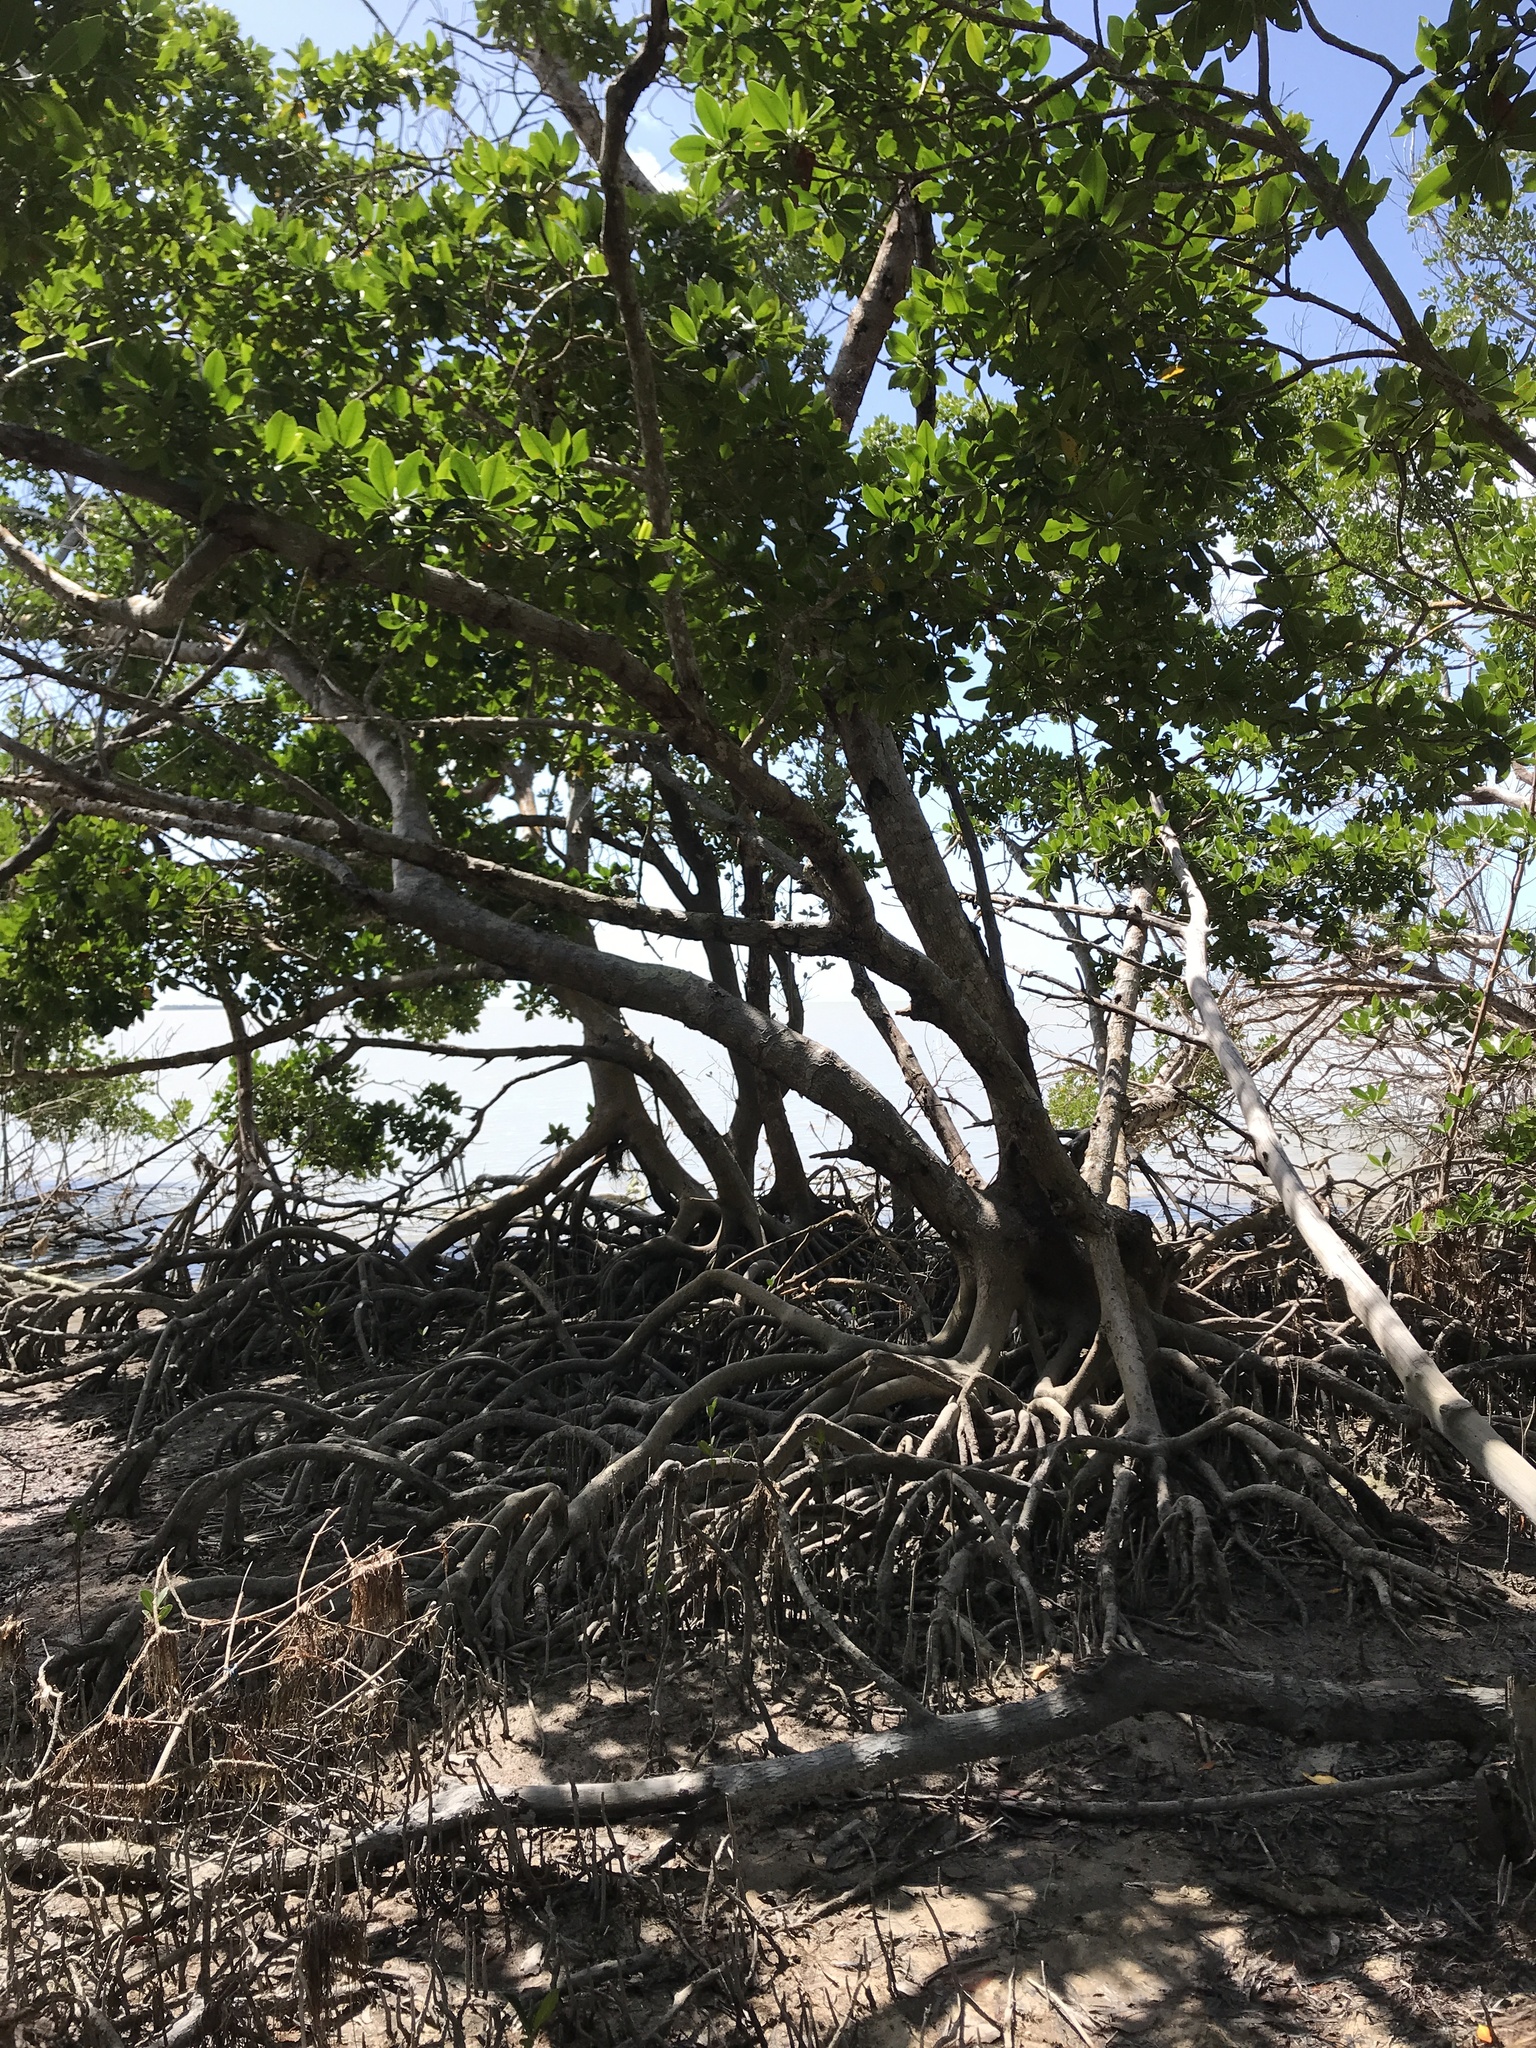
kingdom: Plantae
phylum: Tracheophyta
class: Magnoliopsida
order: Malpighiales
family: Rhizophoraceae
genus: Rhizophora
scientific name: Rhizophora mangle
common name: Red mangrove
